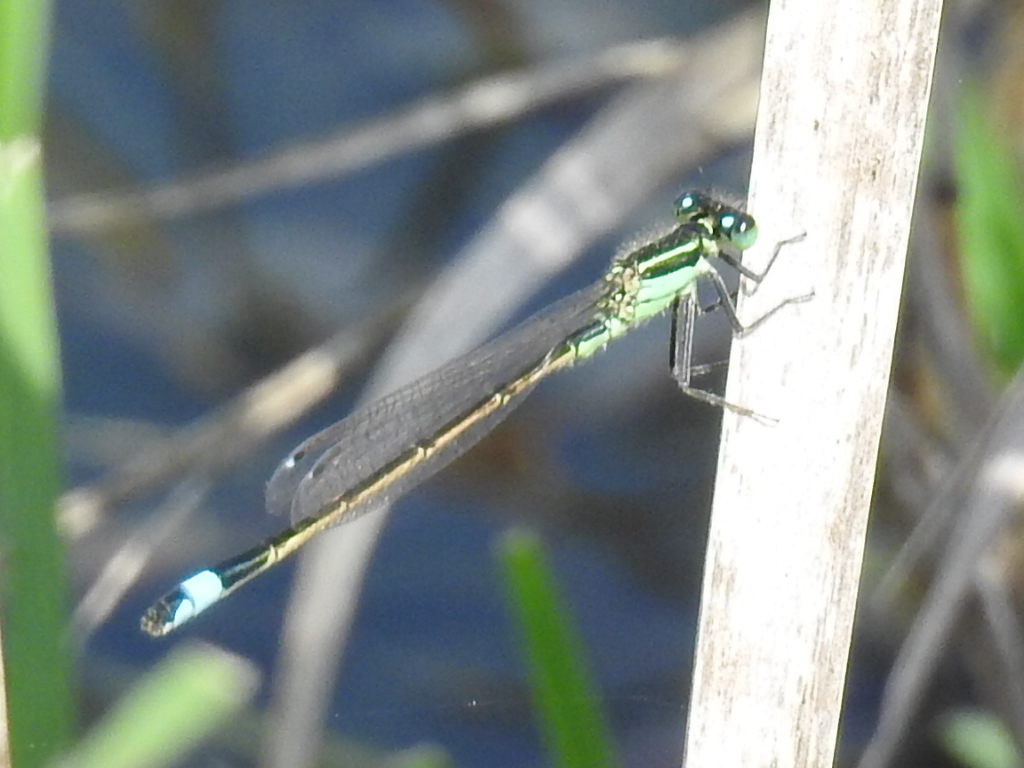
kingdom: Animalia
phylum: Arthropoda
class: Insecta
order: Odonata
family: Coenagrionidae
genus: Ischnura
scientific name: Ischnura ramburii
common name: Rambur's forktail
